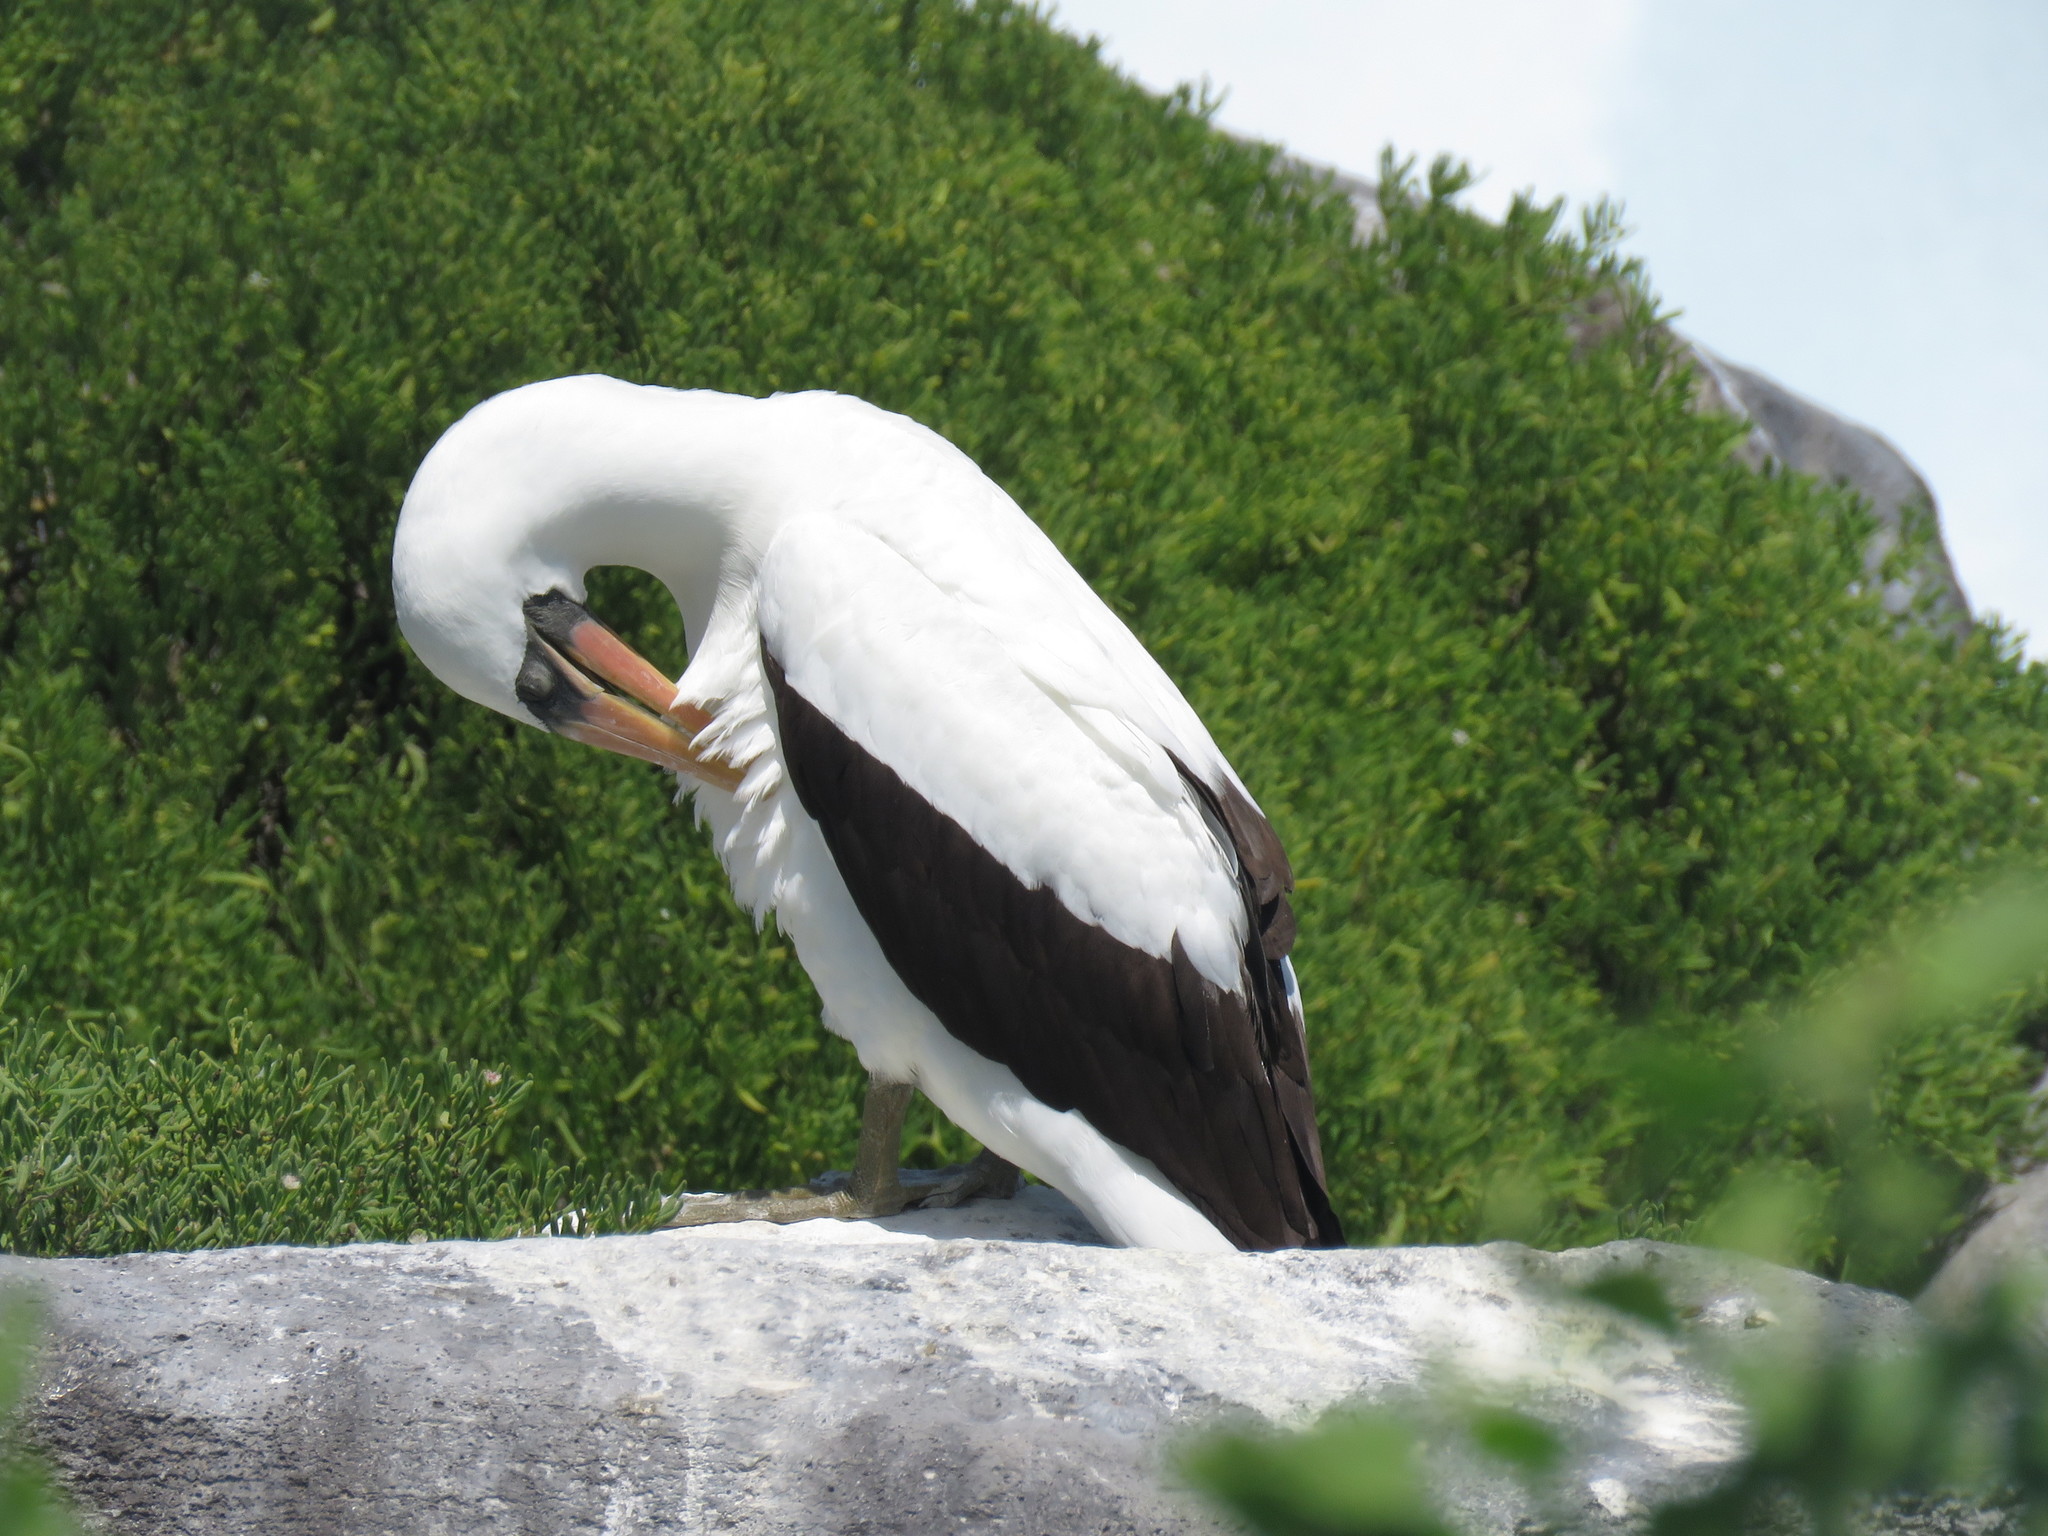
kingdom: Animalia
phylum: Chordata
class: Aves
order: Suliformes
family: Sulidae
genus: Sula
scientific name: Sula granti
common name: Nazca booby
